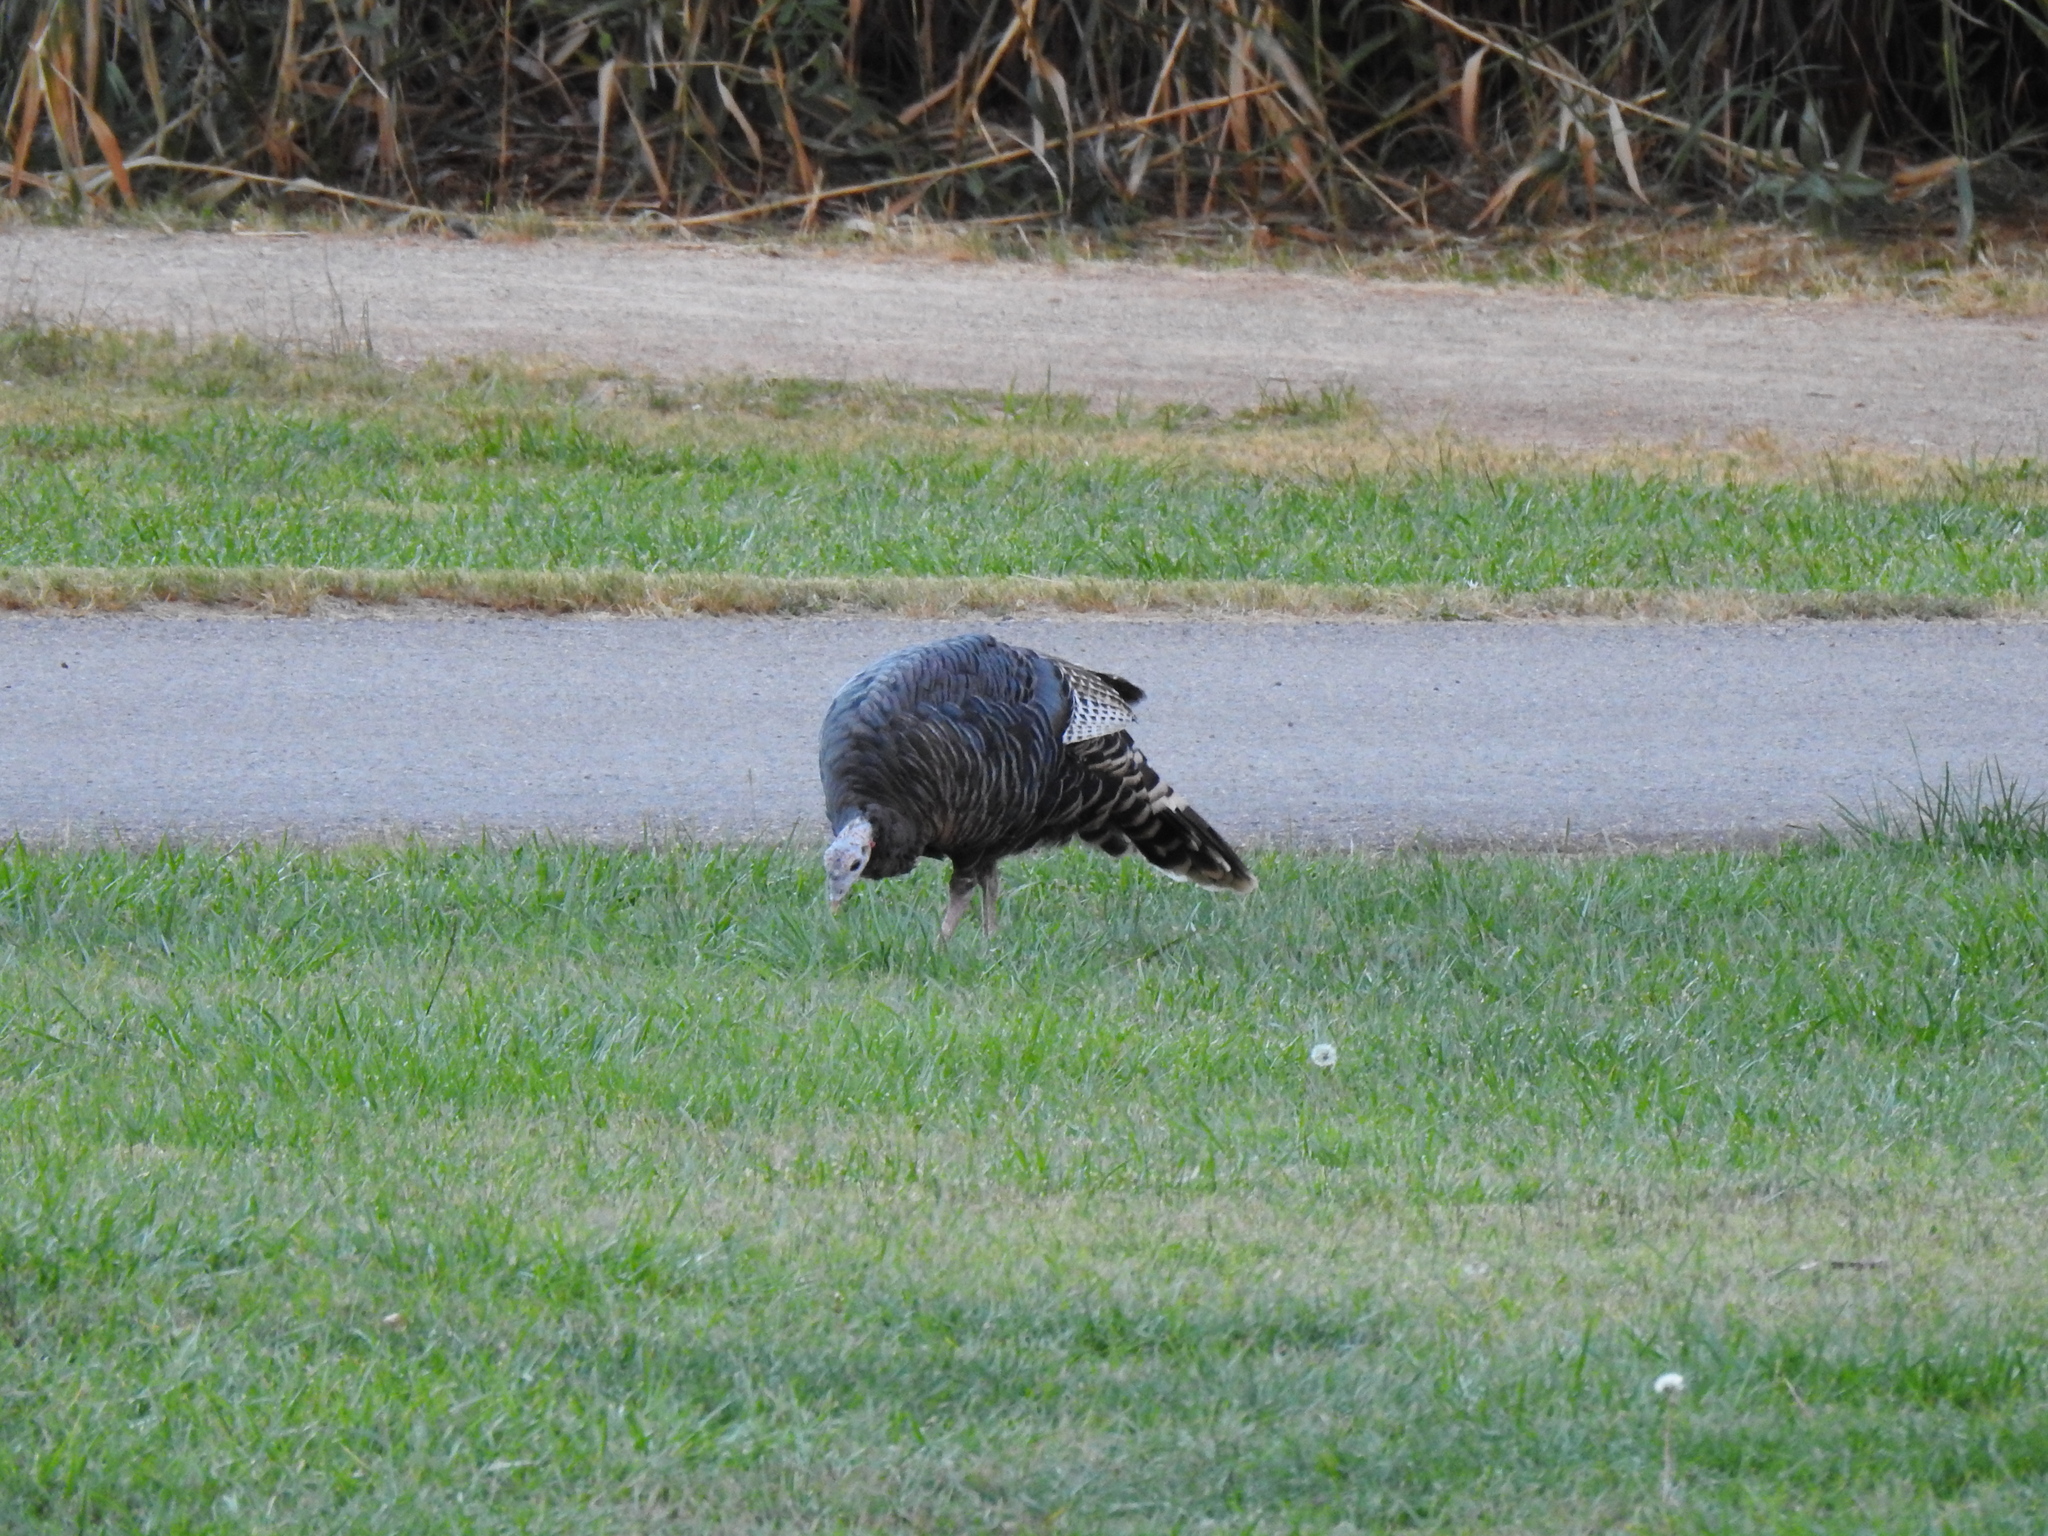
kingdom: Animalia
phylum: Chordata
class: Aves
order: Galliformes
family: Phasianidae
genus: Meleagris
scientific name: Meleagris gallopavo
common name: Wild turkey
